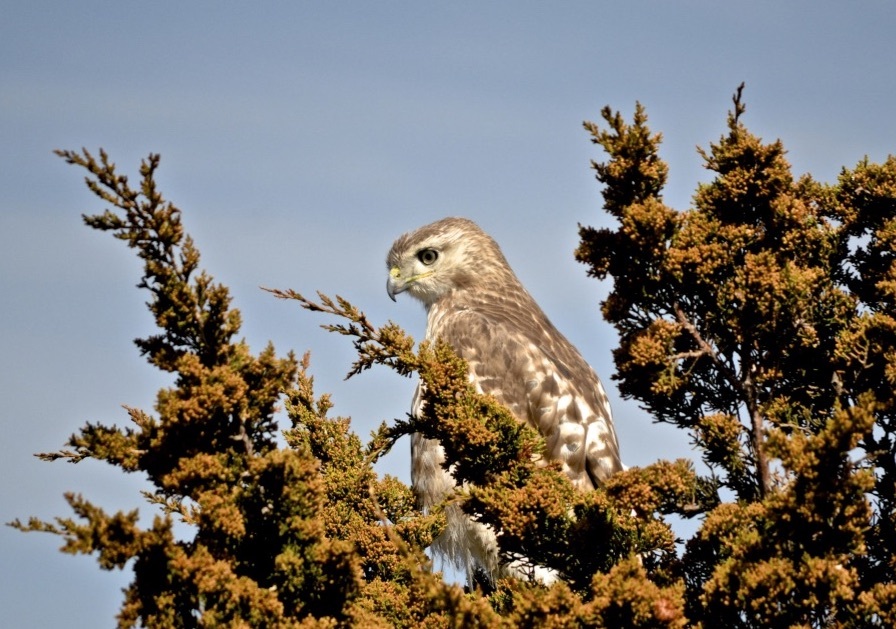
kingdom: Animalia
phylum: Chordata
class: Aves
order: Accipitriformes
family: Accipitridae
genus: Buteo
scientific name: Buteo lineatus
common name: Red-shouldered hawk
